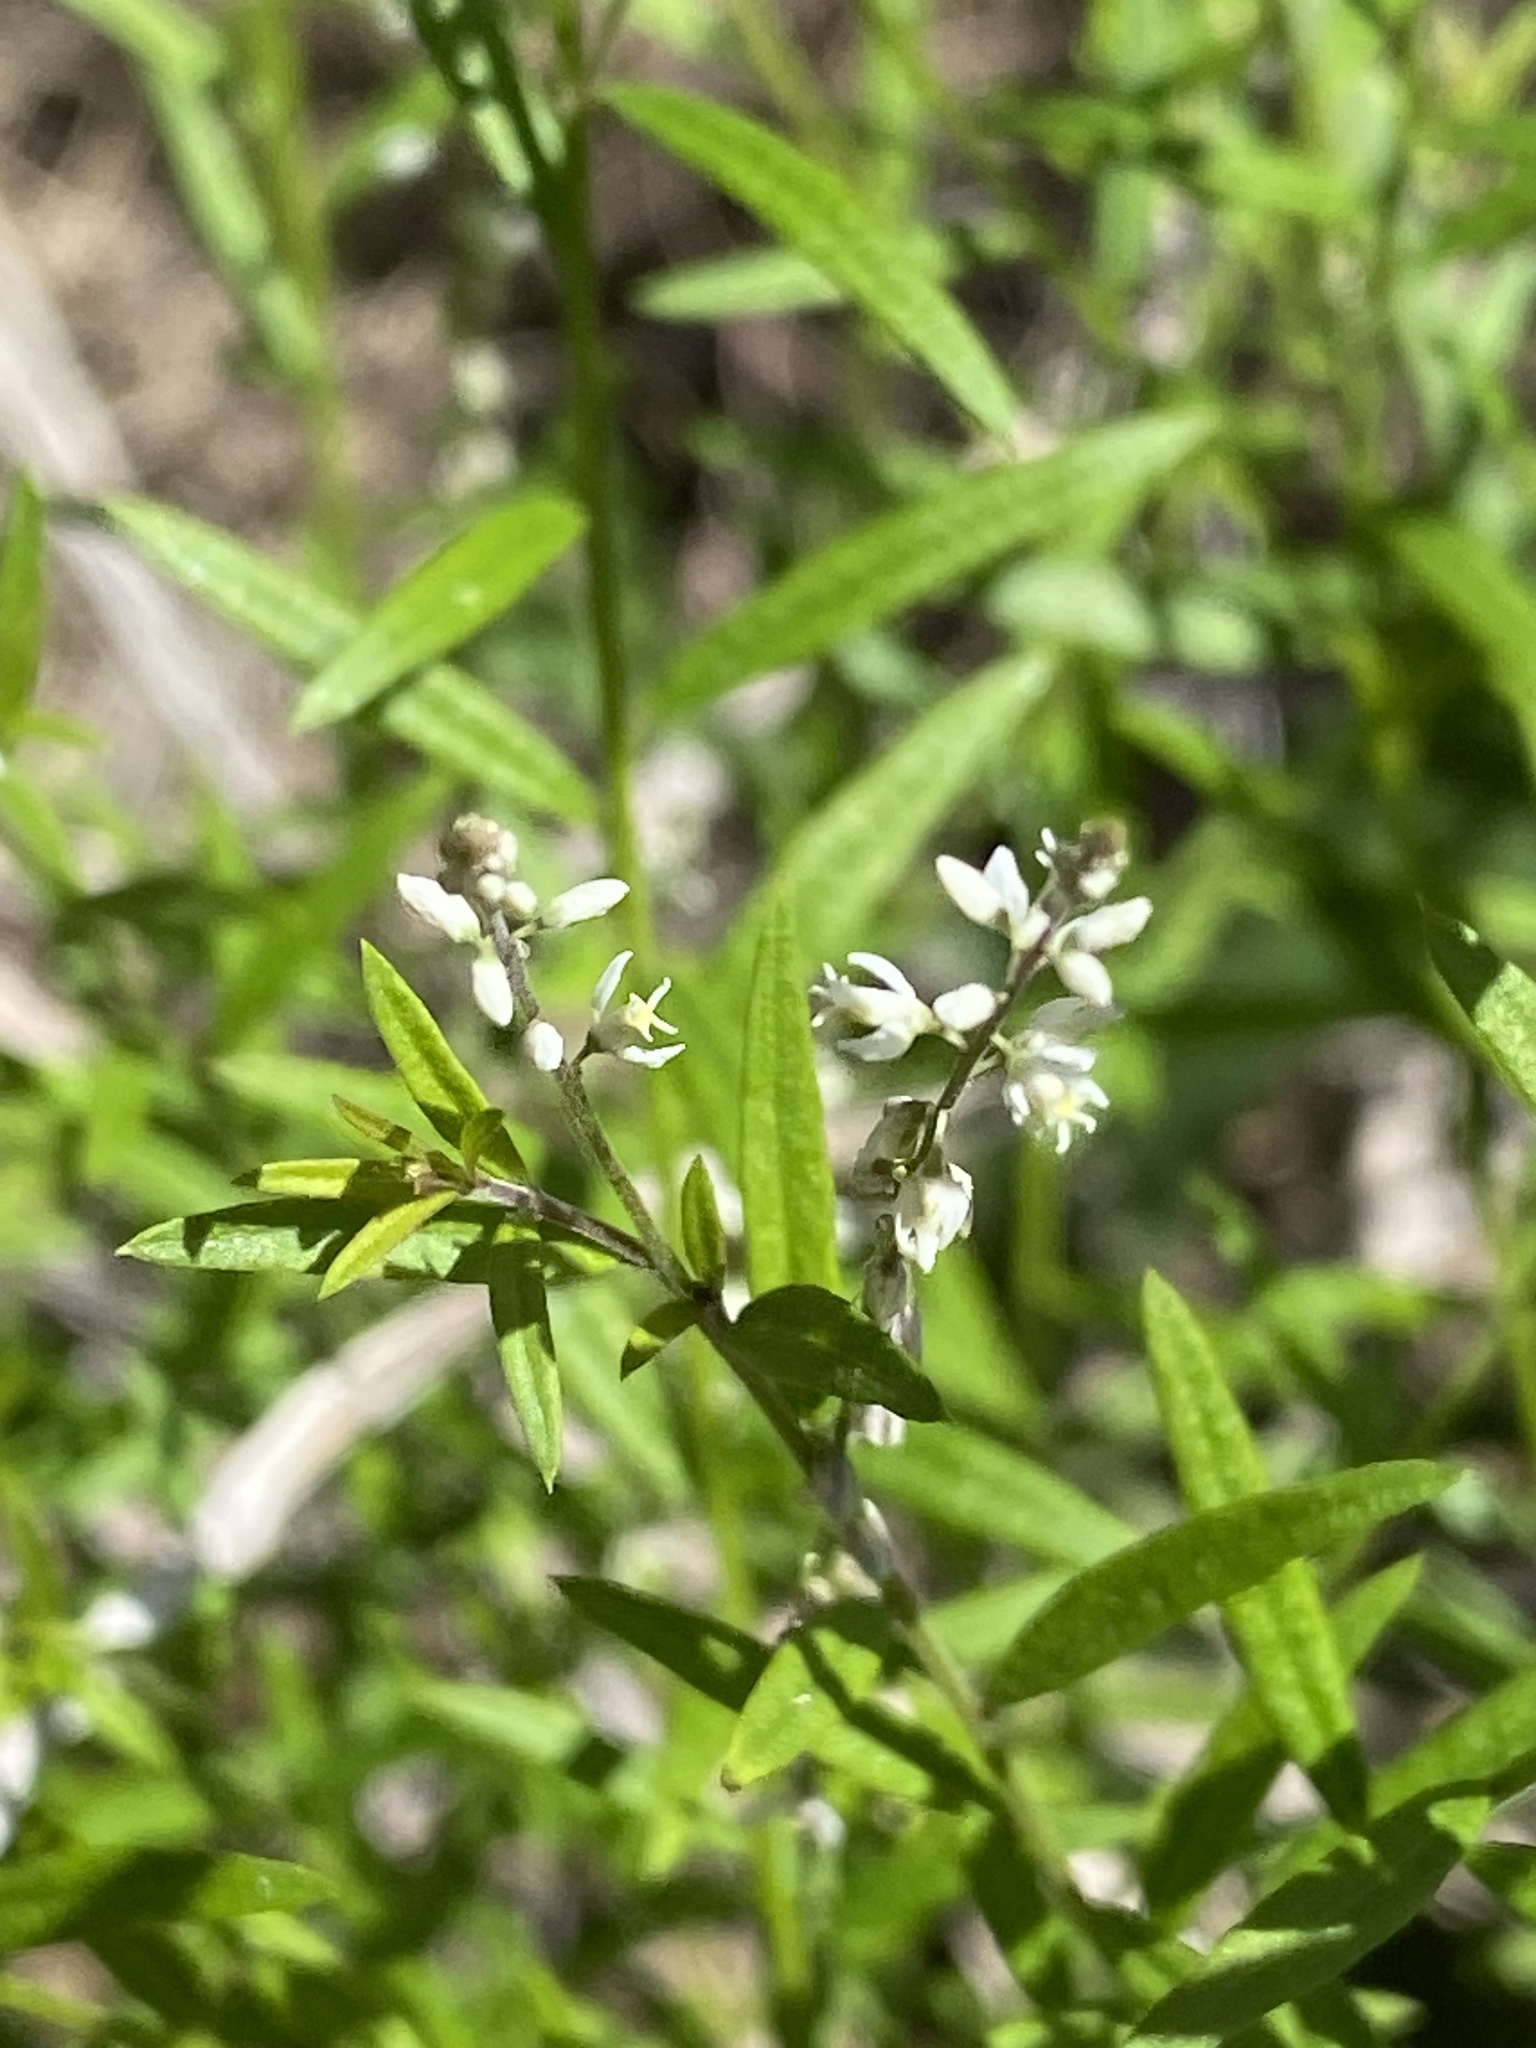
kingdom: Plantae
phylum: Tracheophyta
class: Magnoliopsida
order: Fabales
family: Polygalaceae
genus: Polygala
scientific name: Polygala paniculata
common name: Orosne
